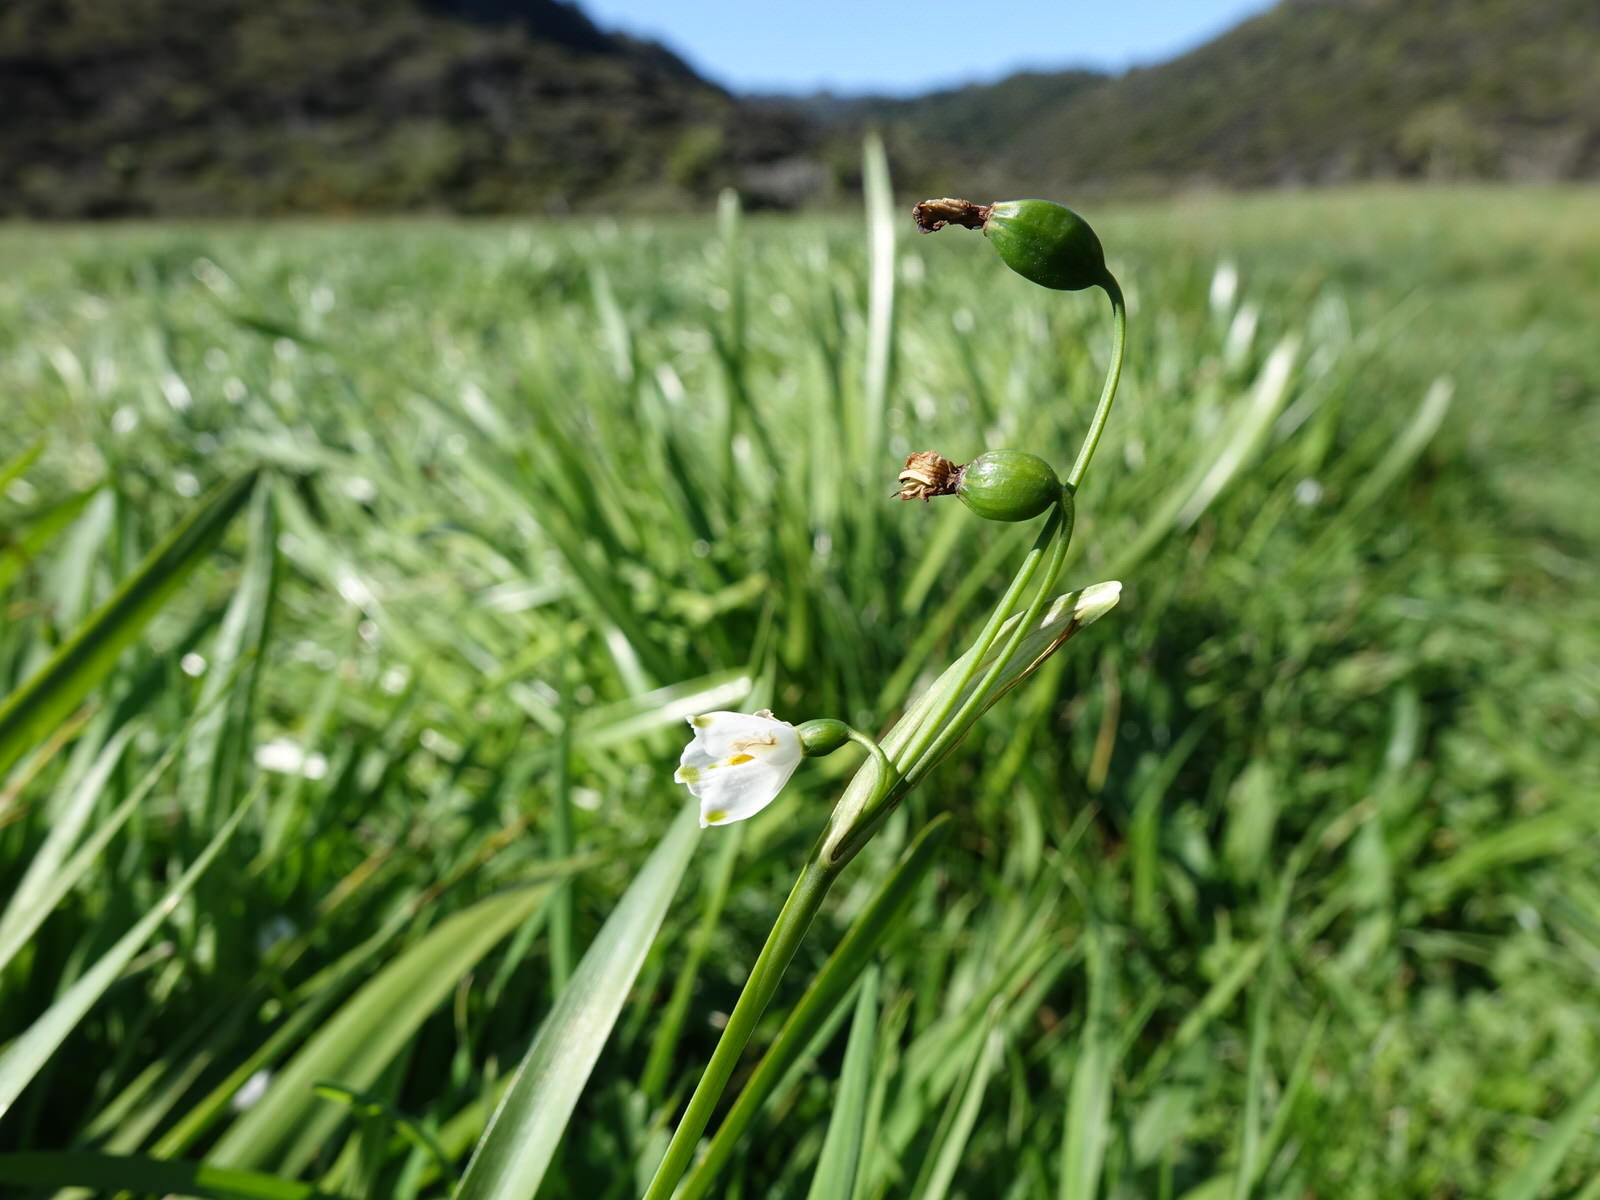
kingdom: Plantae
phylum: Tracheophyta
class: Liliopsida
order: Asparagales
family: Amaryllidaceae
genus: Leucojum
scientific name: Leucojum aestivum
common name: Summer snowflake
